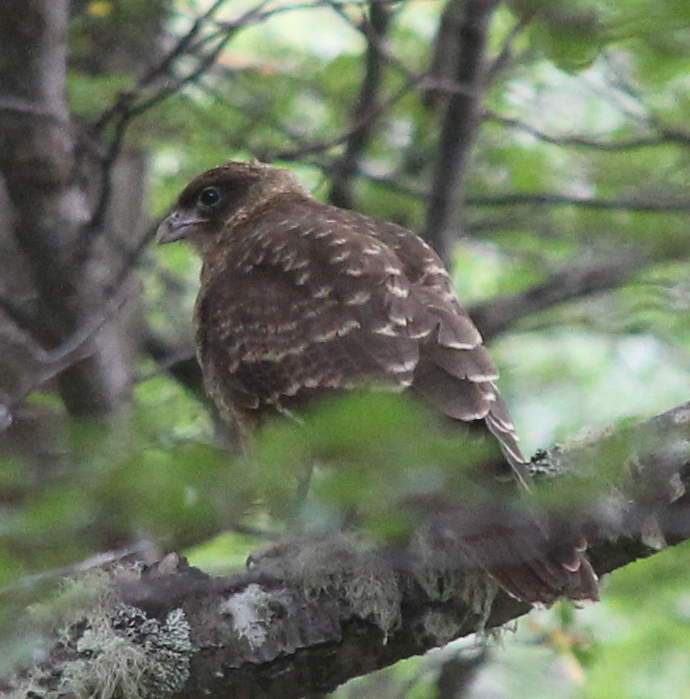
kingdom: Animalia
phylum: Chordata
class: Aves
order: Falconiformes
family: Falconidae
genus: Daptrius
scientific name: Daptrius
